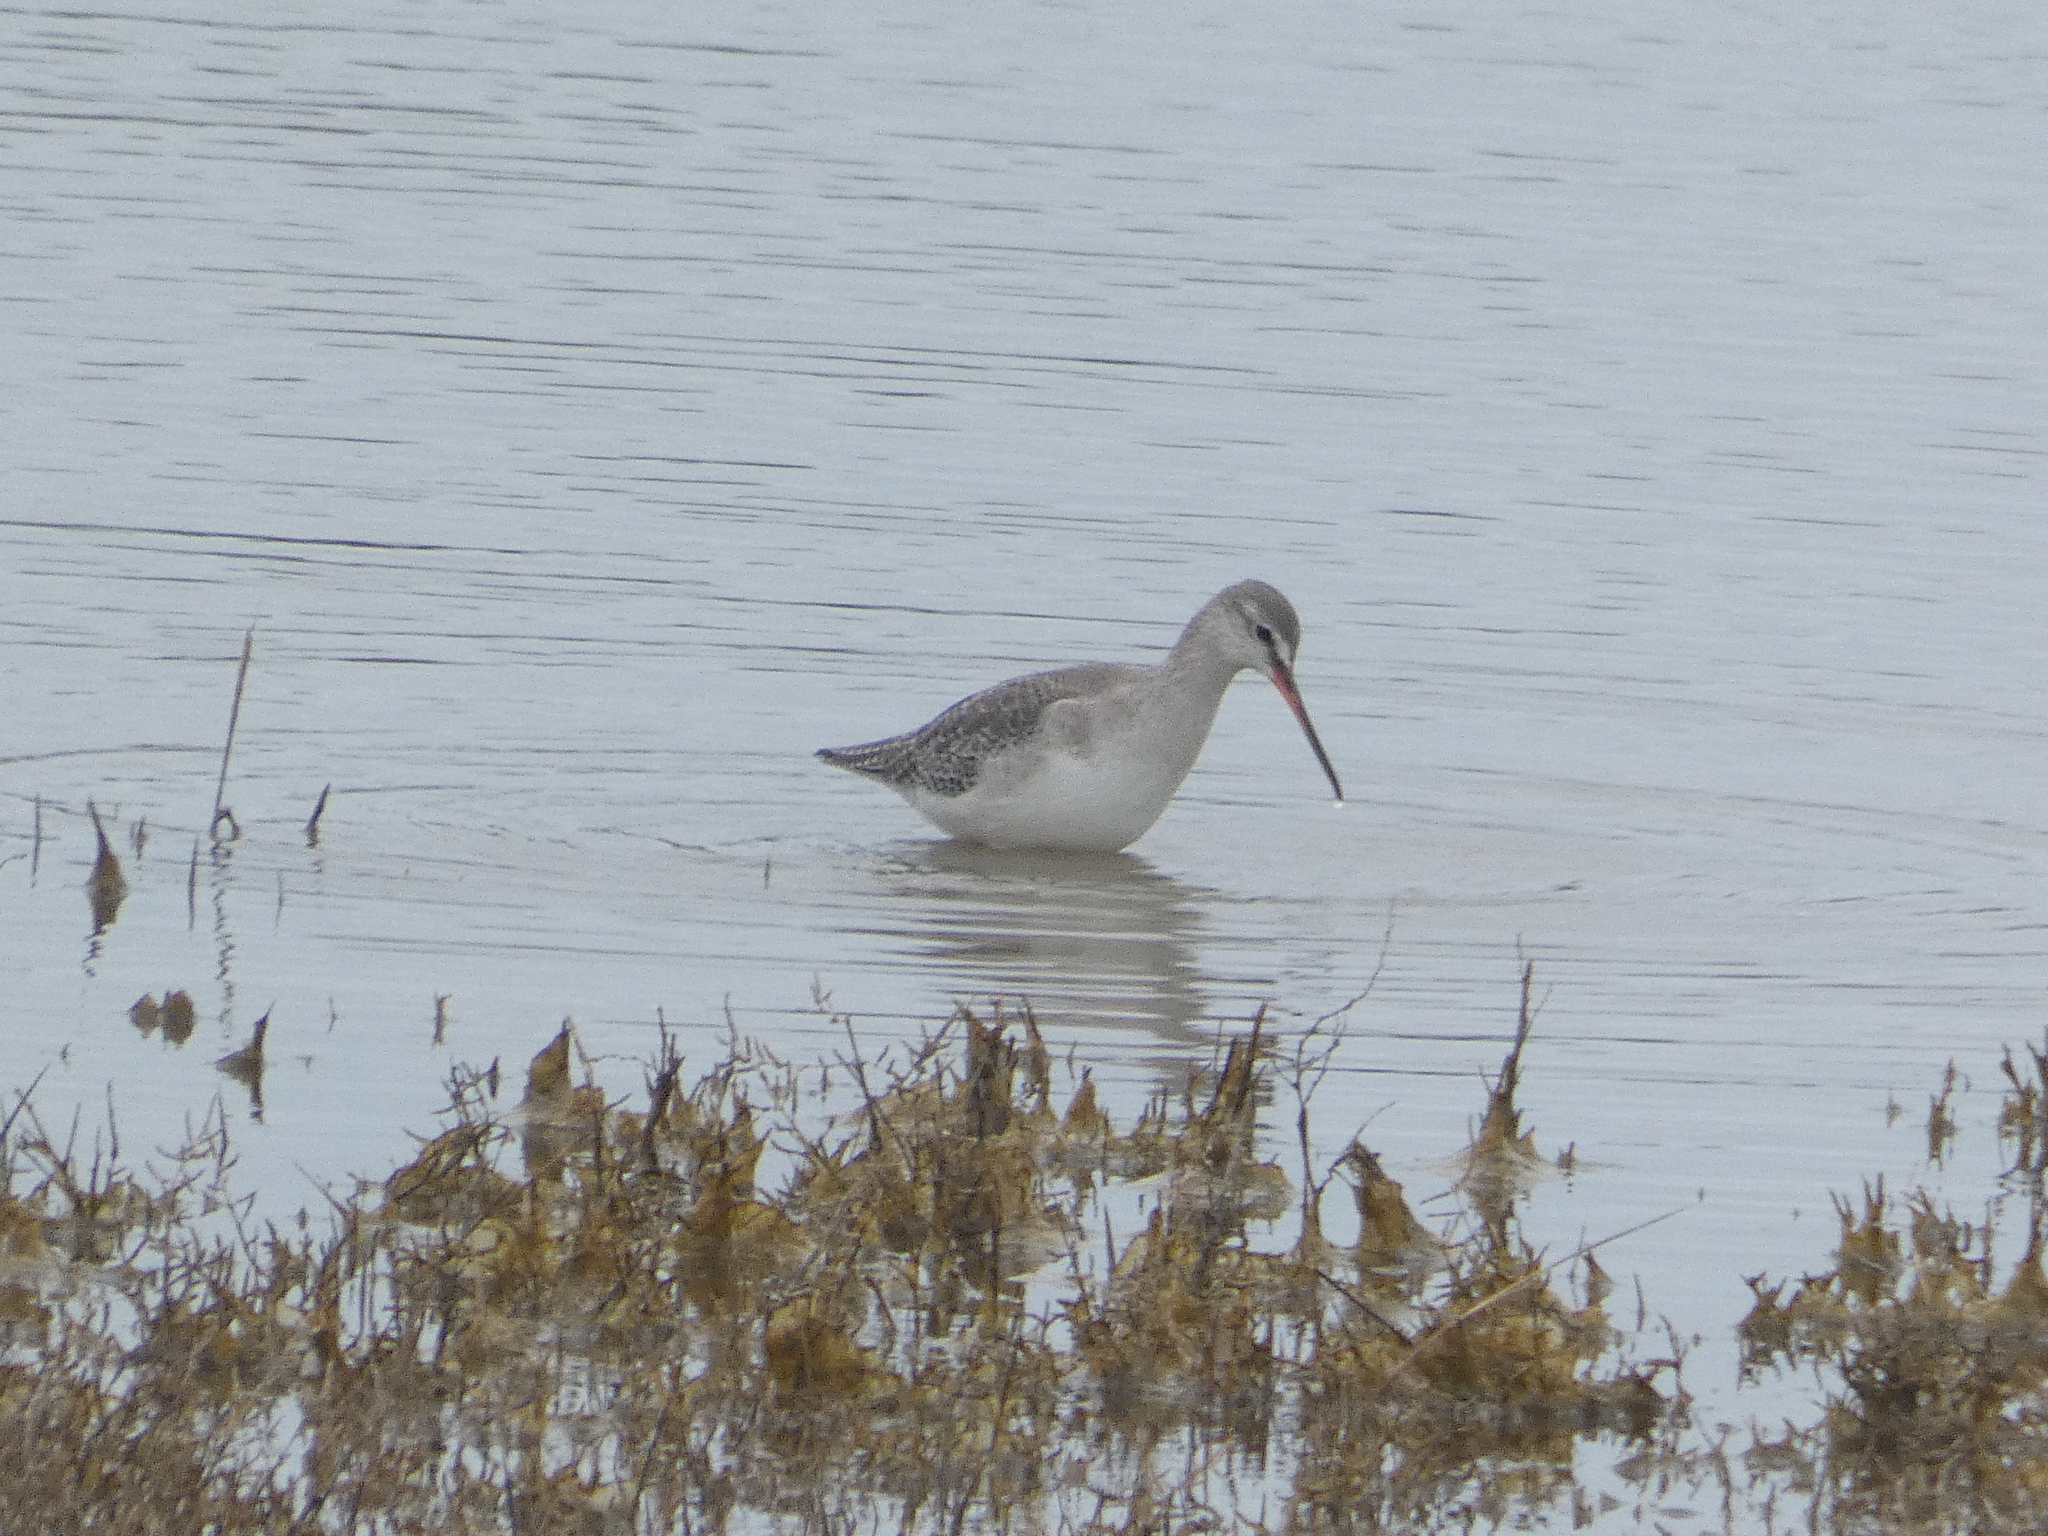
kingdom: Animalia
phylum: Chordata
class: Aves
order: Charadriiformes
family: Scolopacidae
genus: Tringa
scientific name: Tringa erythropus
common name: Spotted redshank
